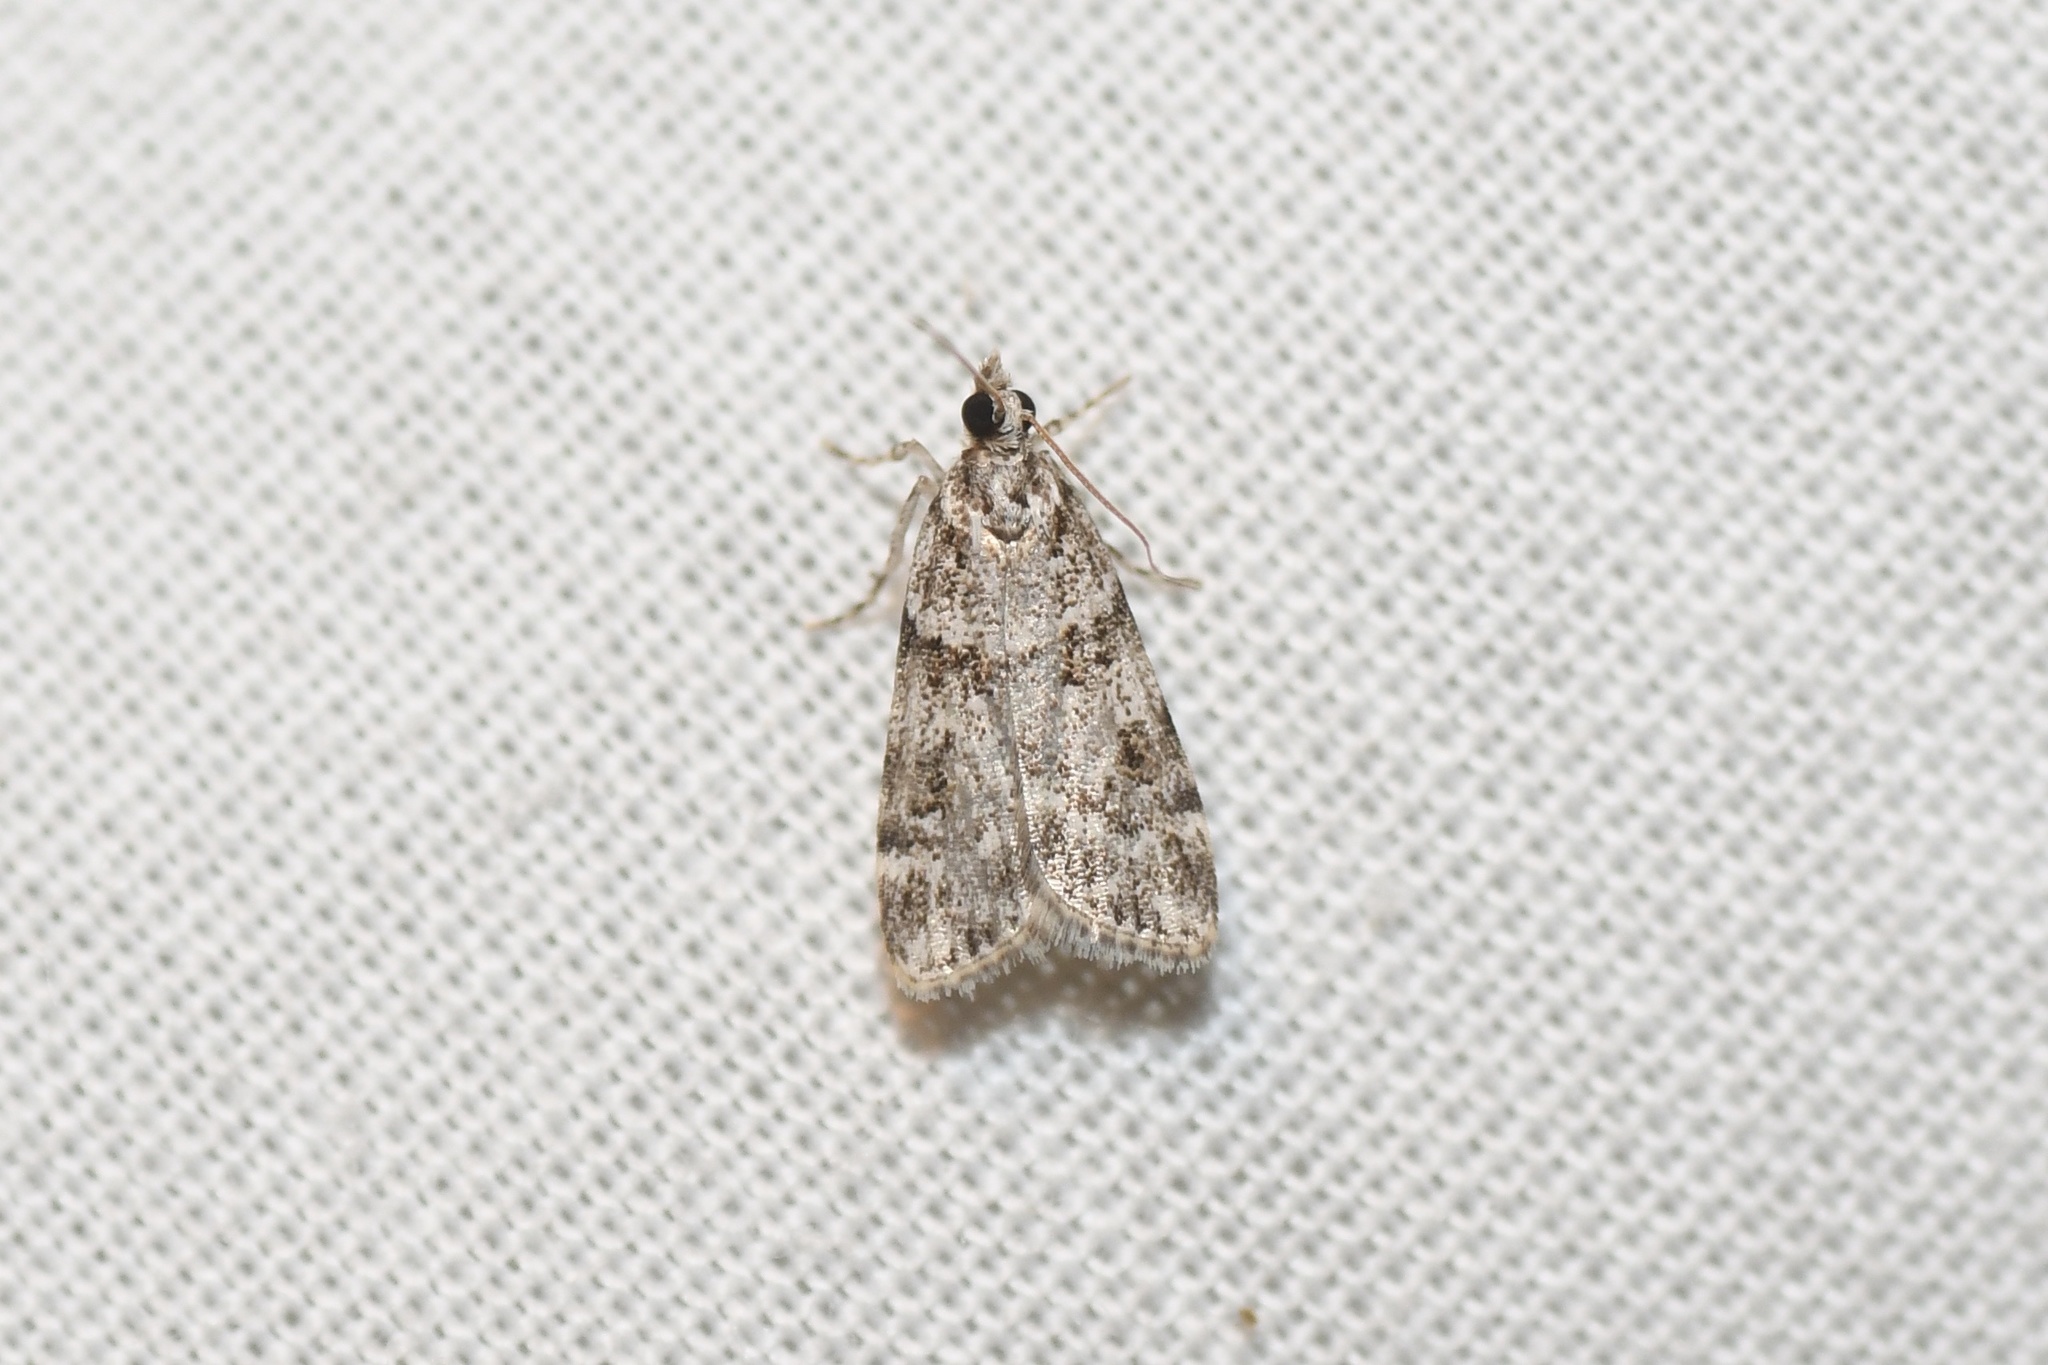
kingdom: Animalia
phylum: Arthropoda
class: Insecta
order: Lepidoptera
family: Crambidae
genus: Scoparia
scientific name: Scoparia biplagialis
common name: Double-striped scoparia moth
